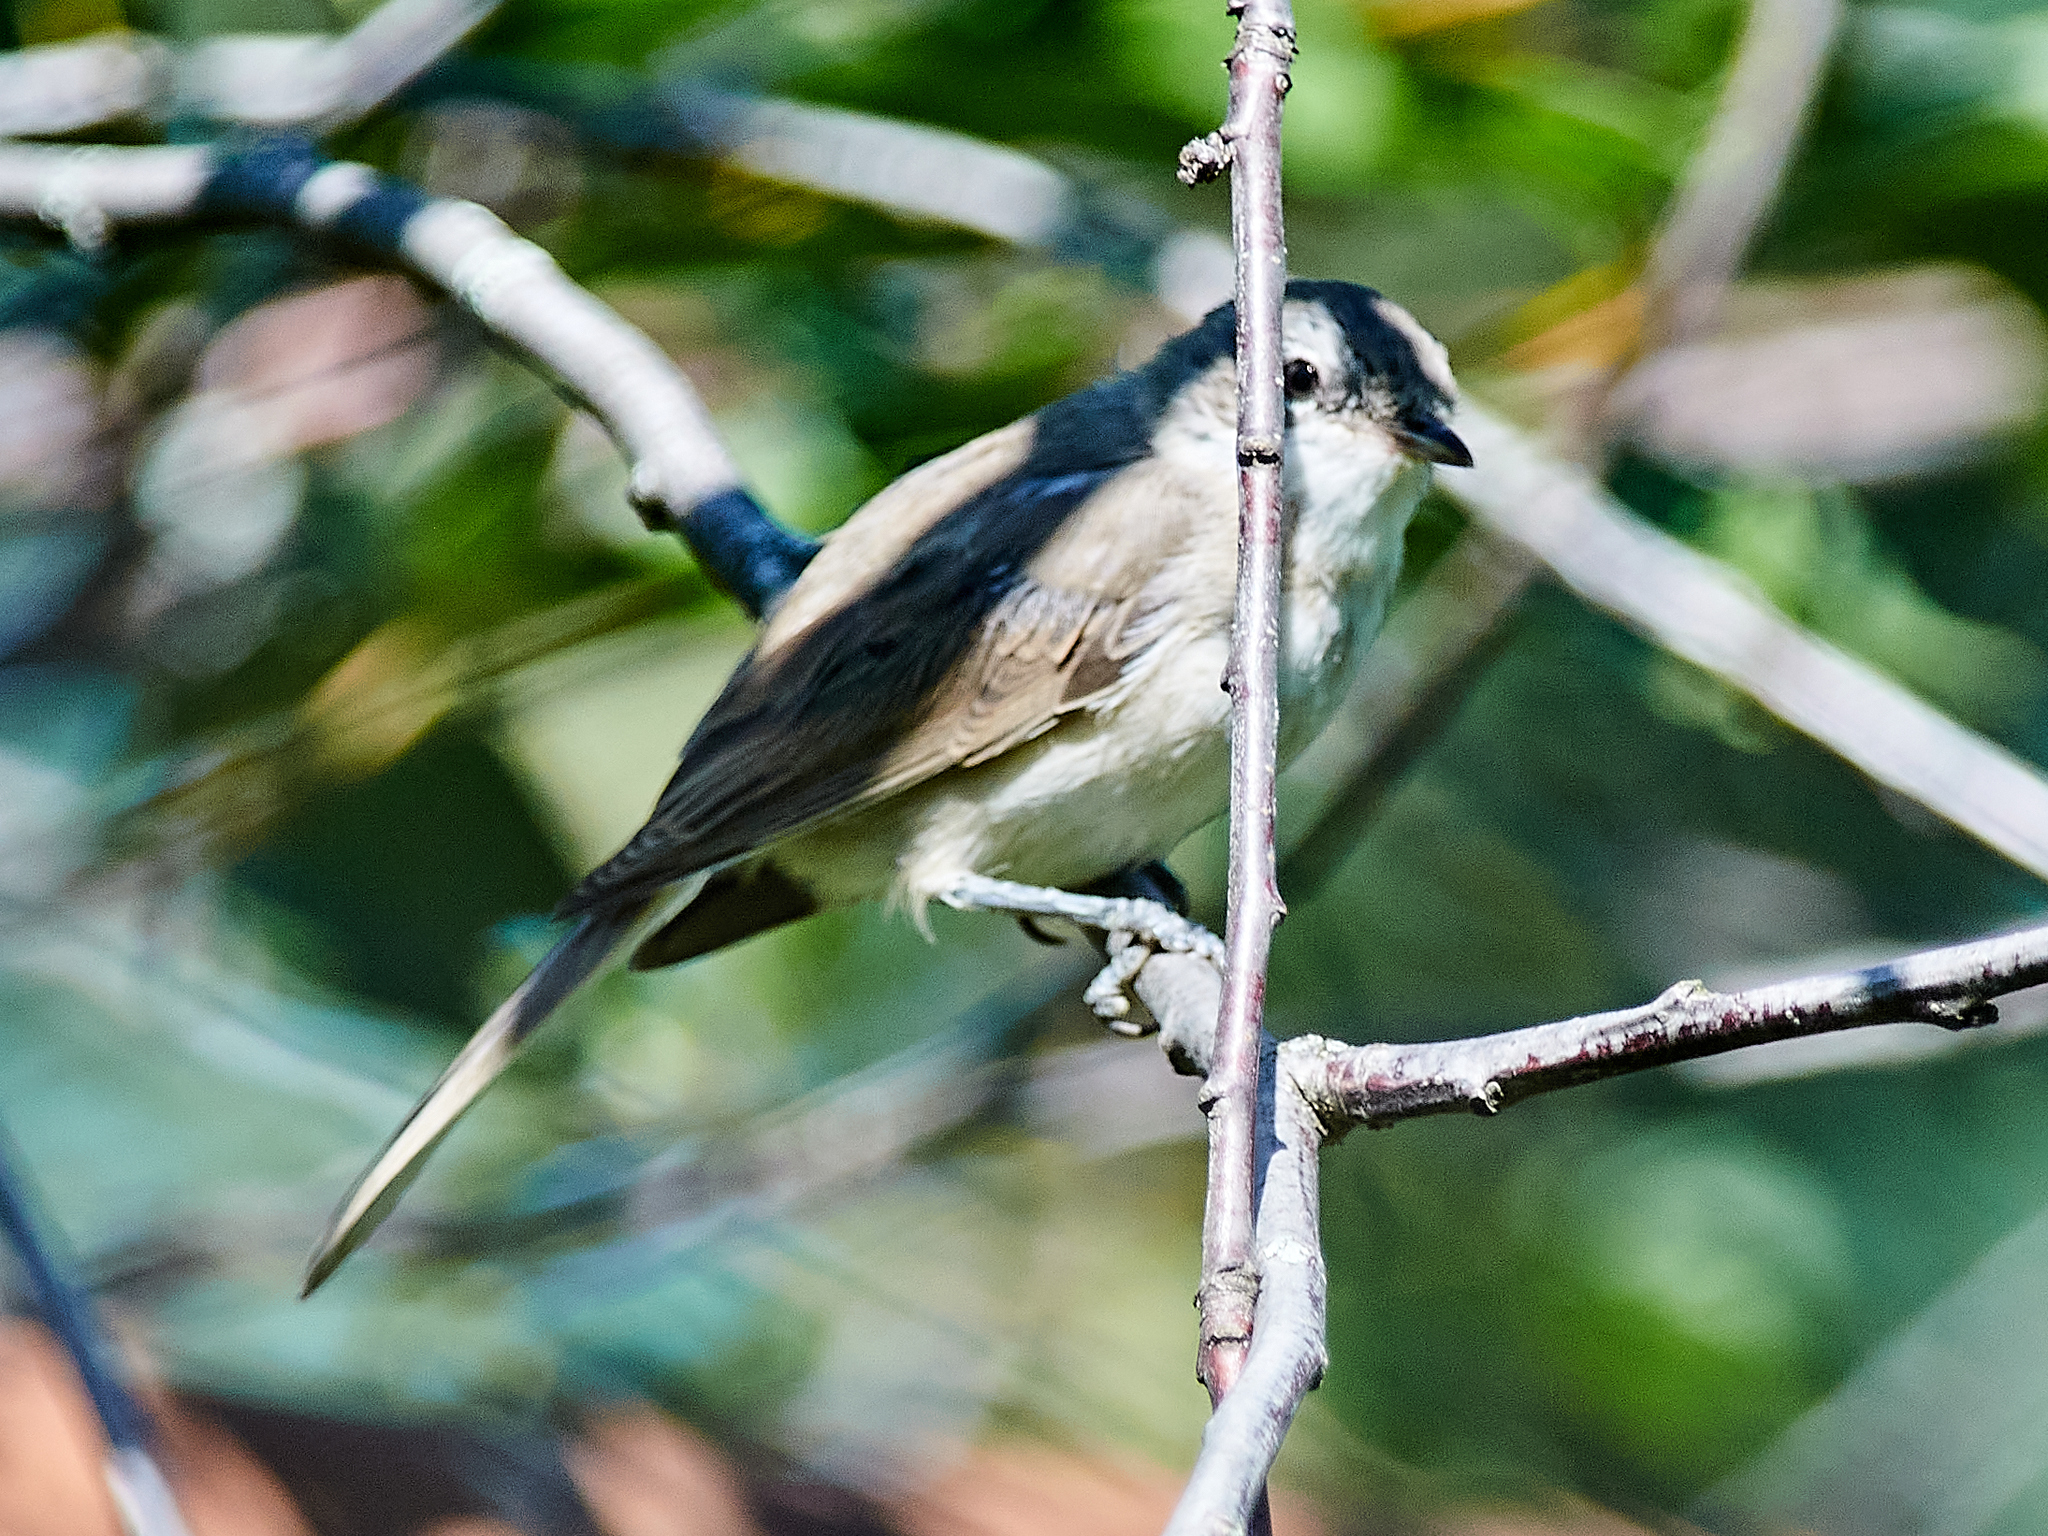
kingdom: Animalia
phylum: Chordata
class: Aves
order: Passeriformes
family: Sylviidae
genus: Sylvia
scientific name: Sylvia curruca
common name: Lesser whitethroat
